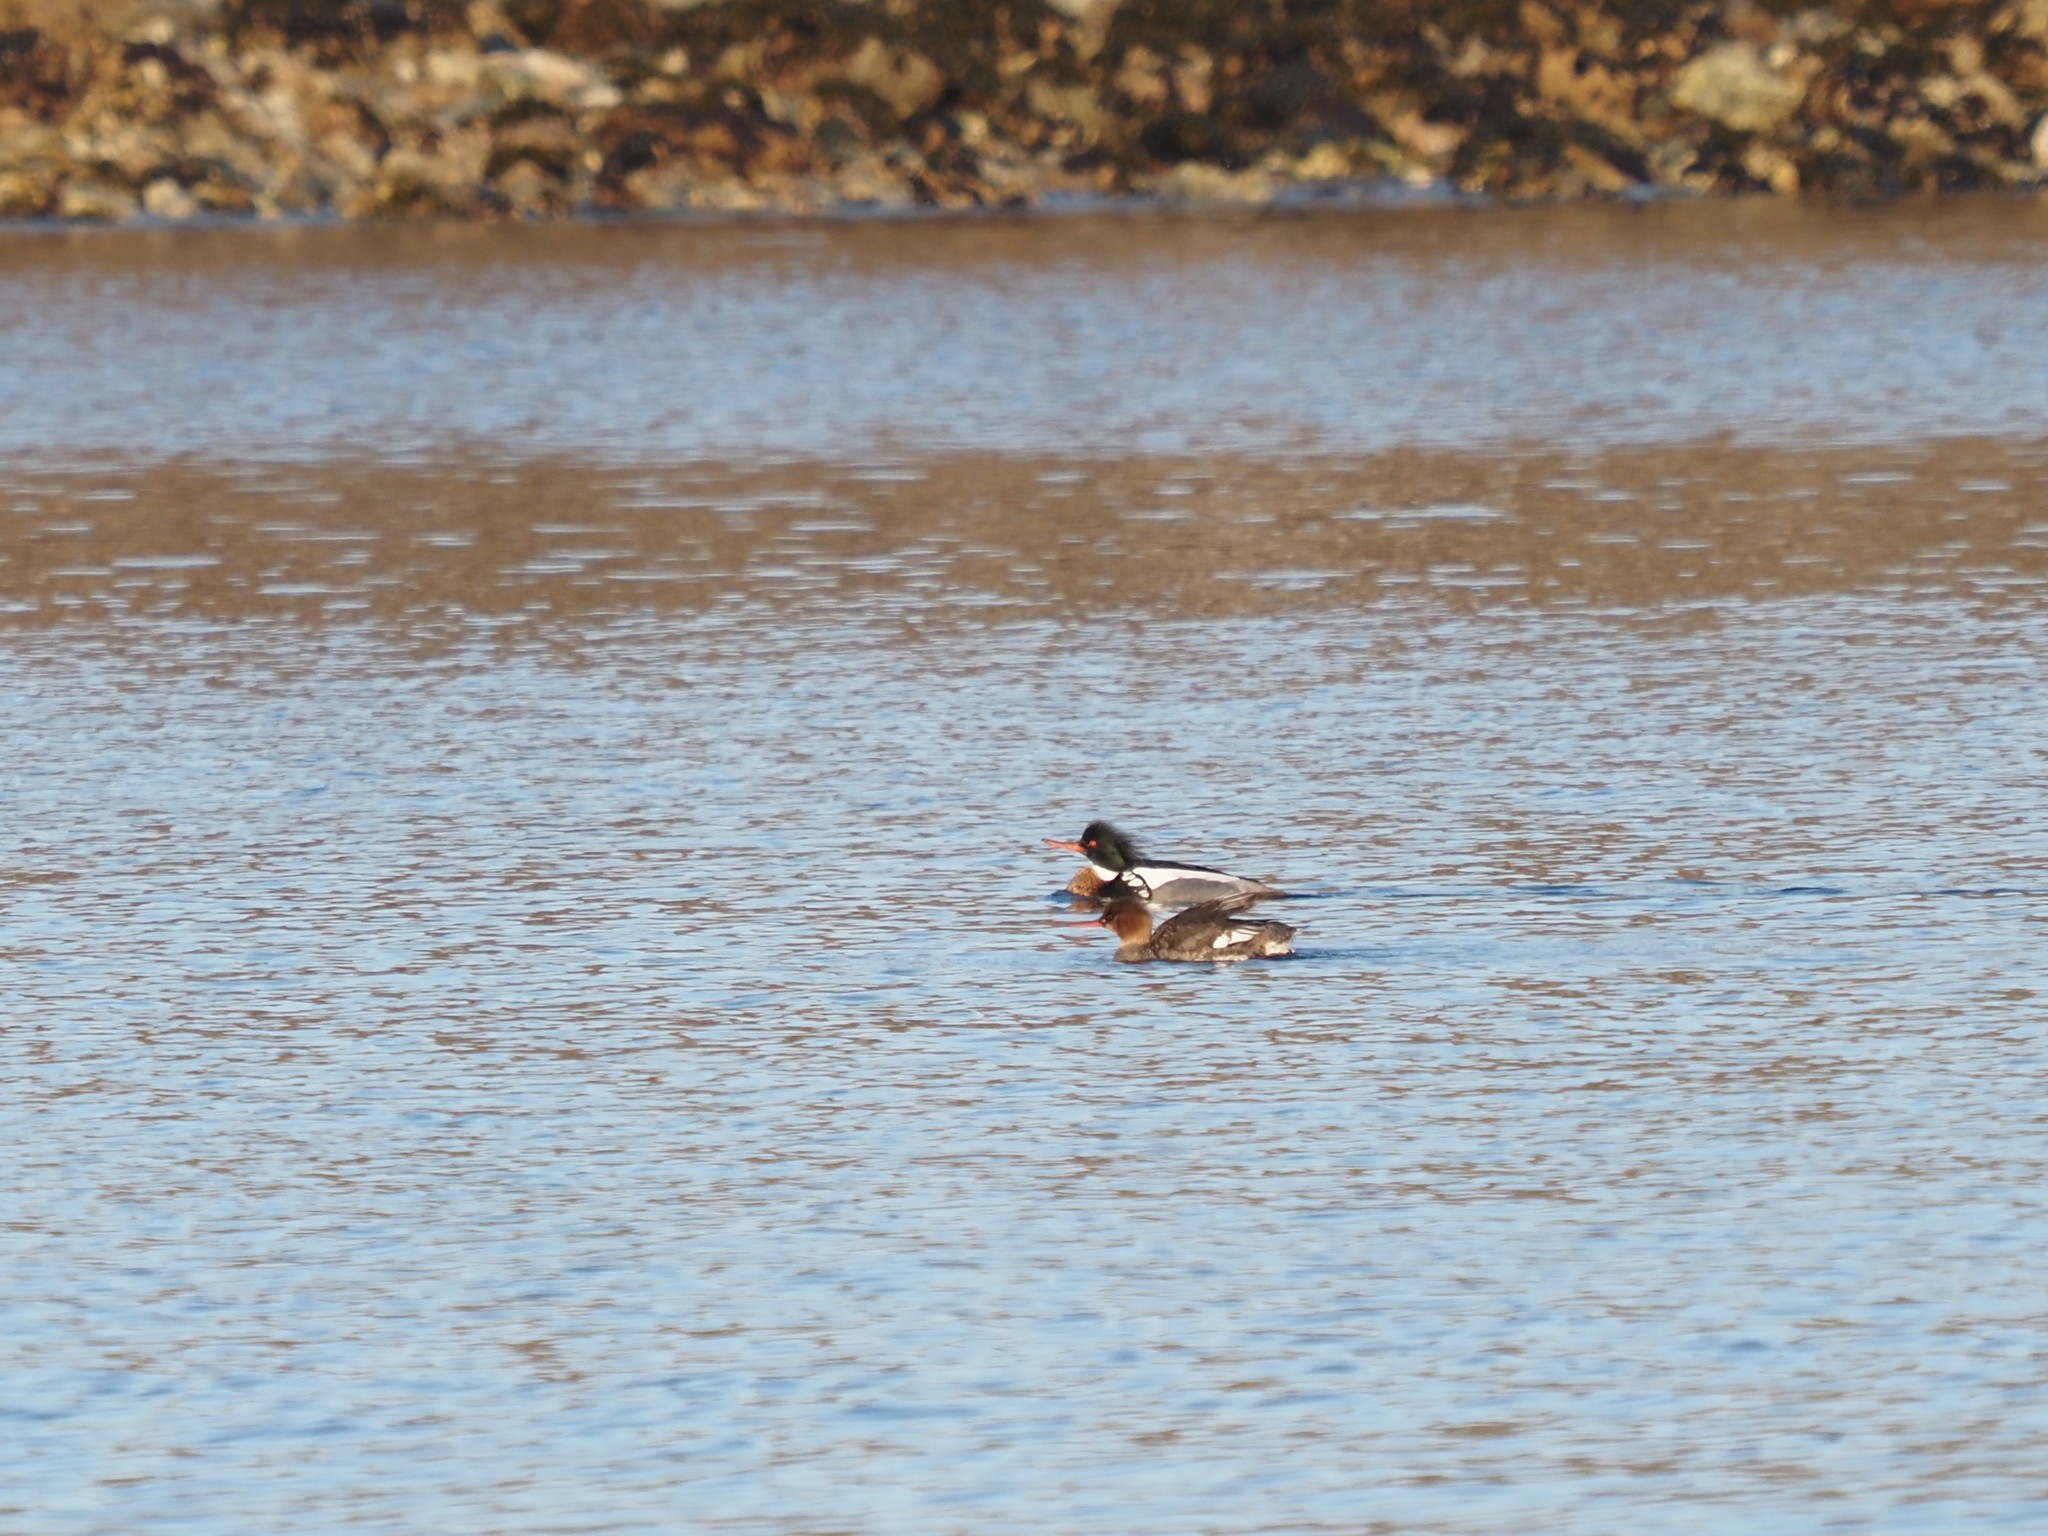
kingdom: Animalia
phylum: Chordata
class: Aves
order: Anseriformes
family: Anatidae
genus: Mergus
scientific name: Mergus serrator
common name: Red-breasted merganser
